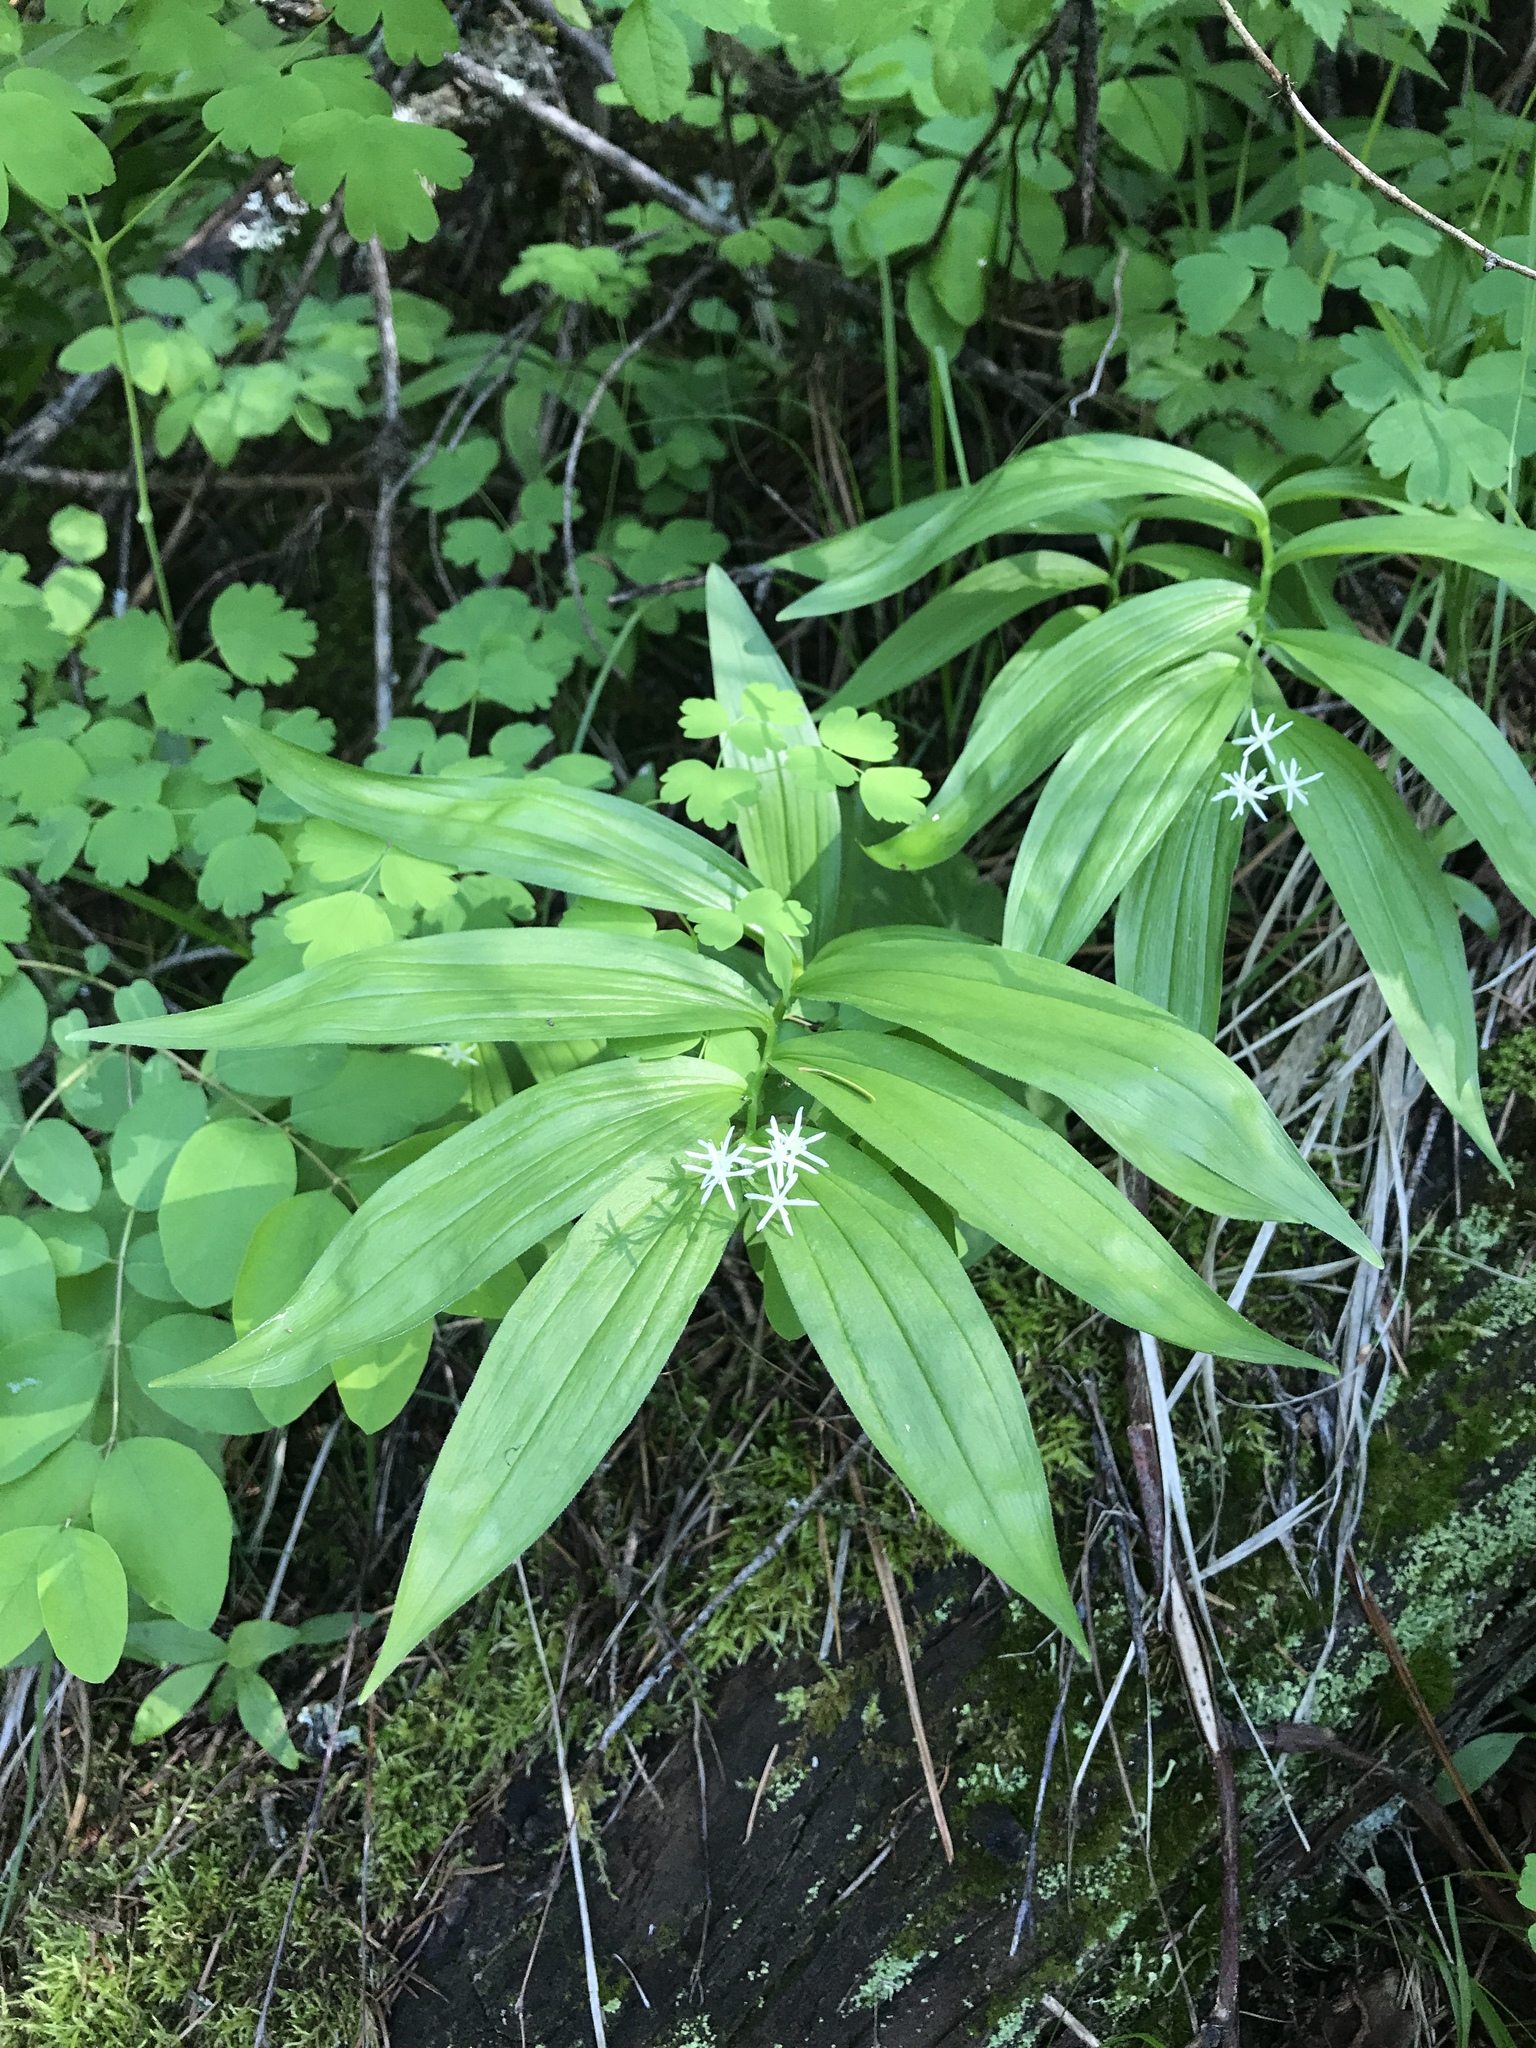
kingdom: Plantae
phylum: Tracheophyta
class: Liliopsida
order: Asparagales
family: Asparagaceae
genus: Maianthemum
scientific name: Maianthemum stellatum
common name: Little false solomon's seal
